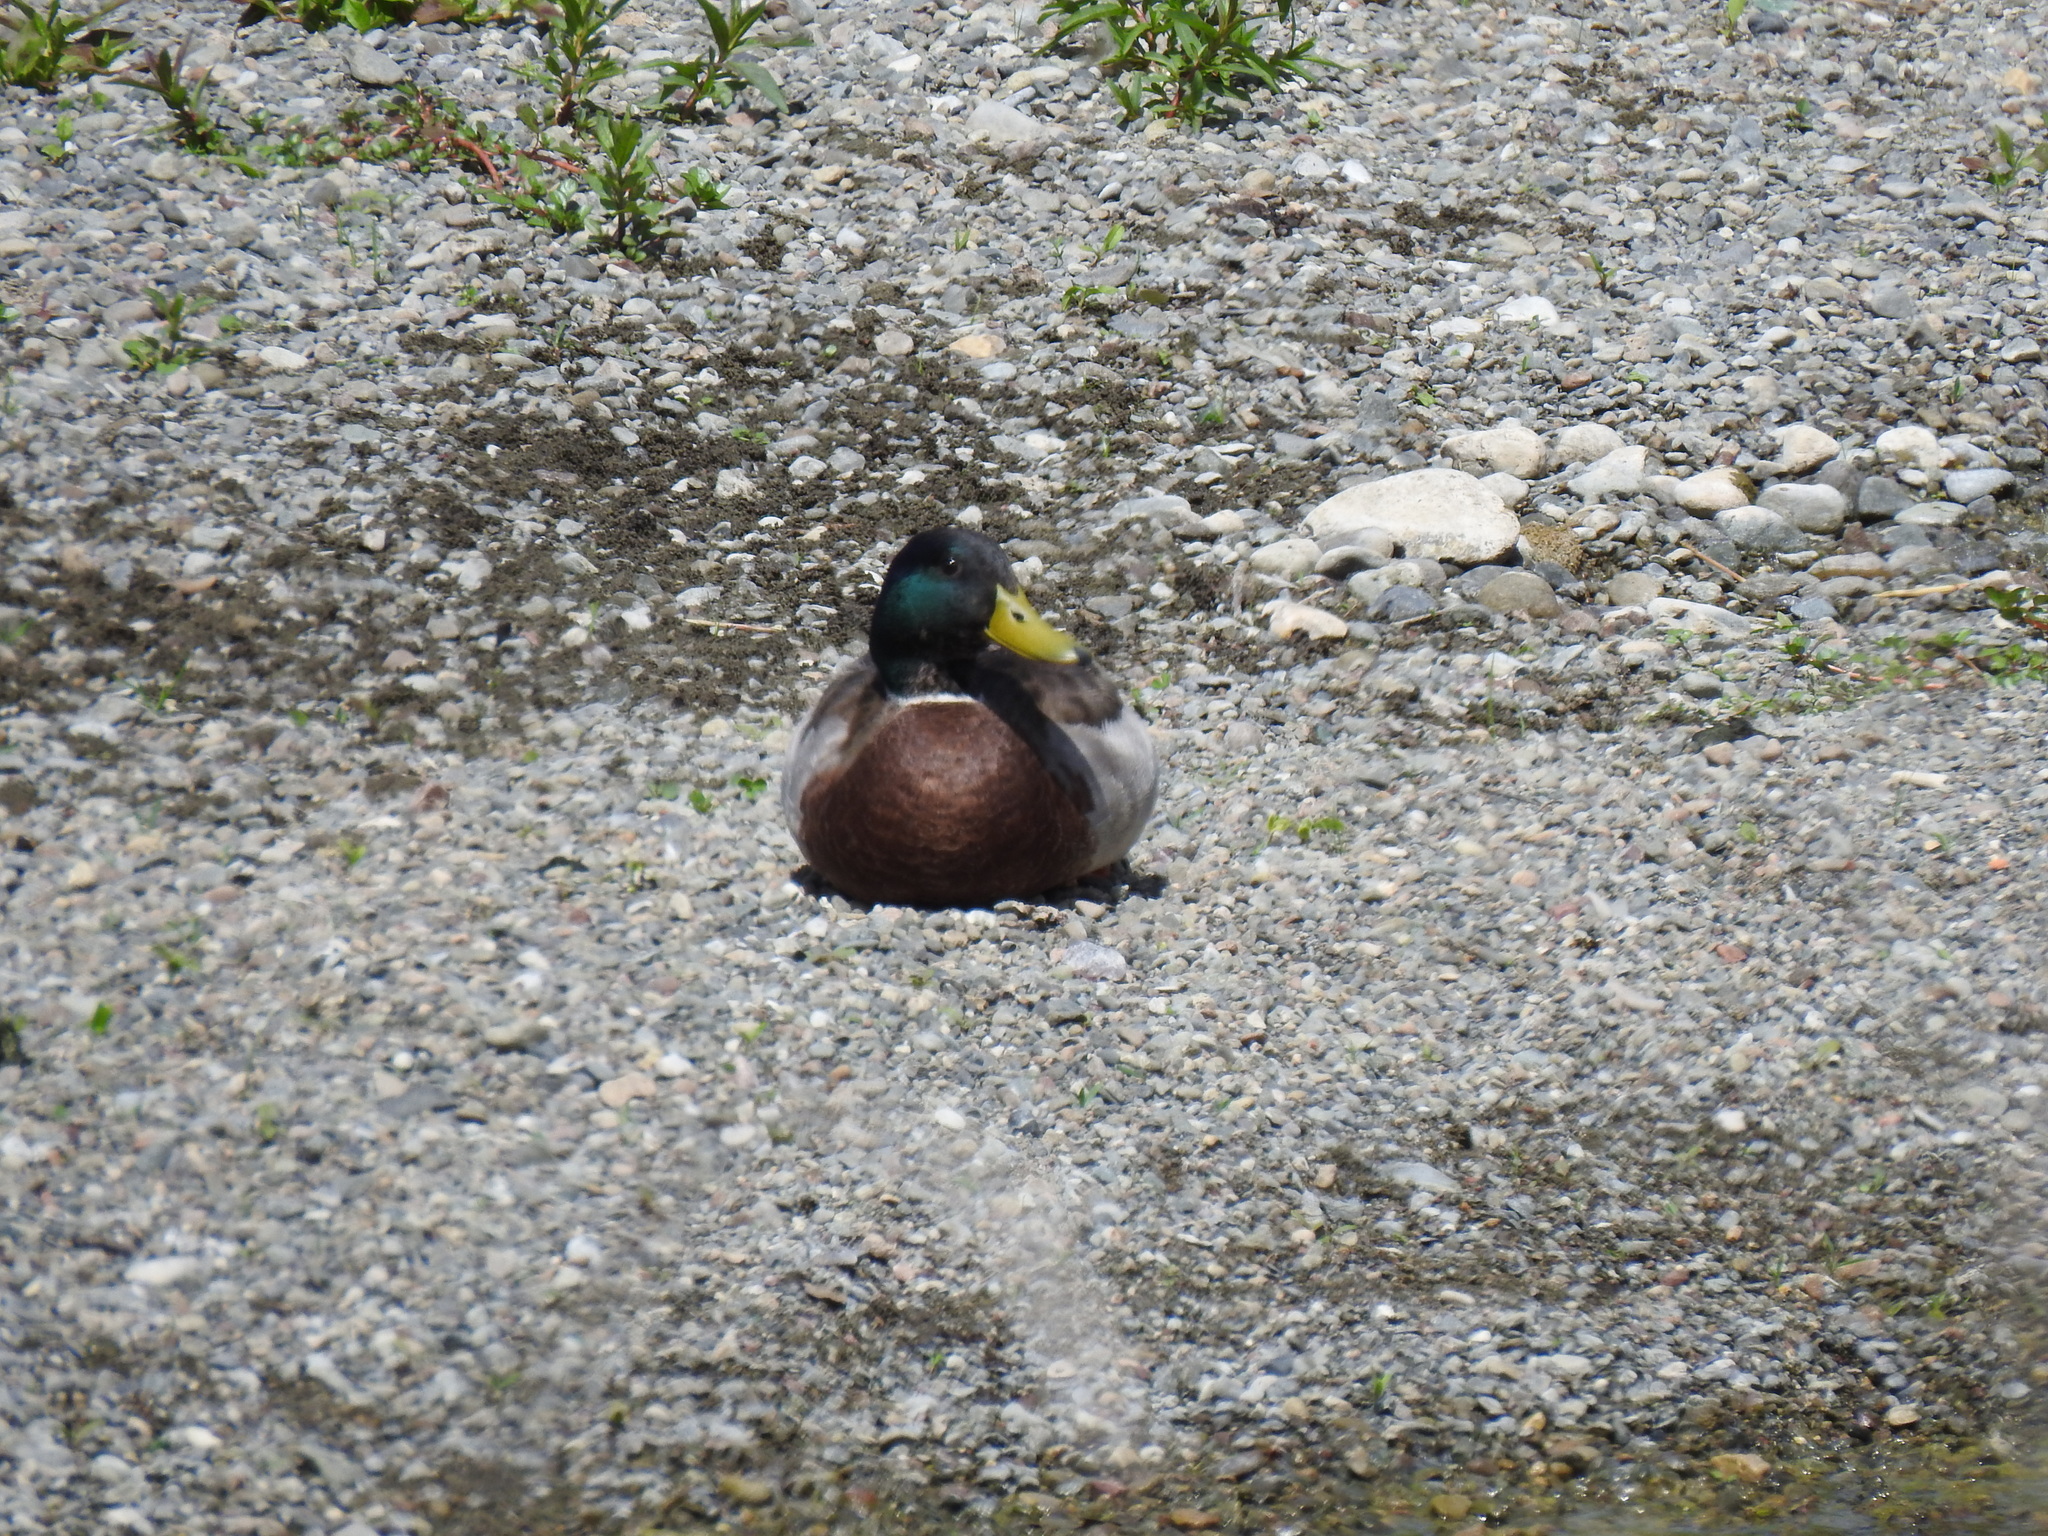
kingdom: Animalia
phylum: Chordata
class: Aves
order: Anseriformes
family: Anatidae
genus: Anas
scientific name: Anas platyrhynchos
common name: Mallard
